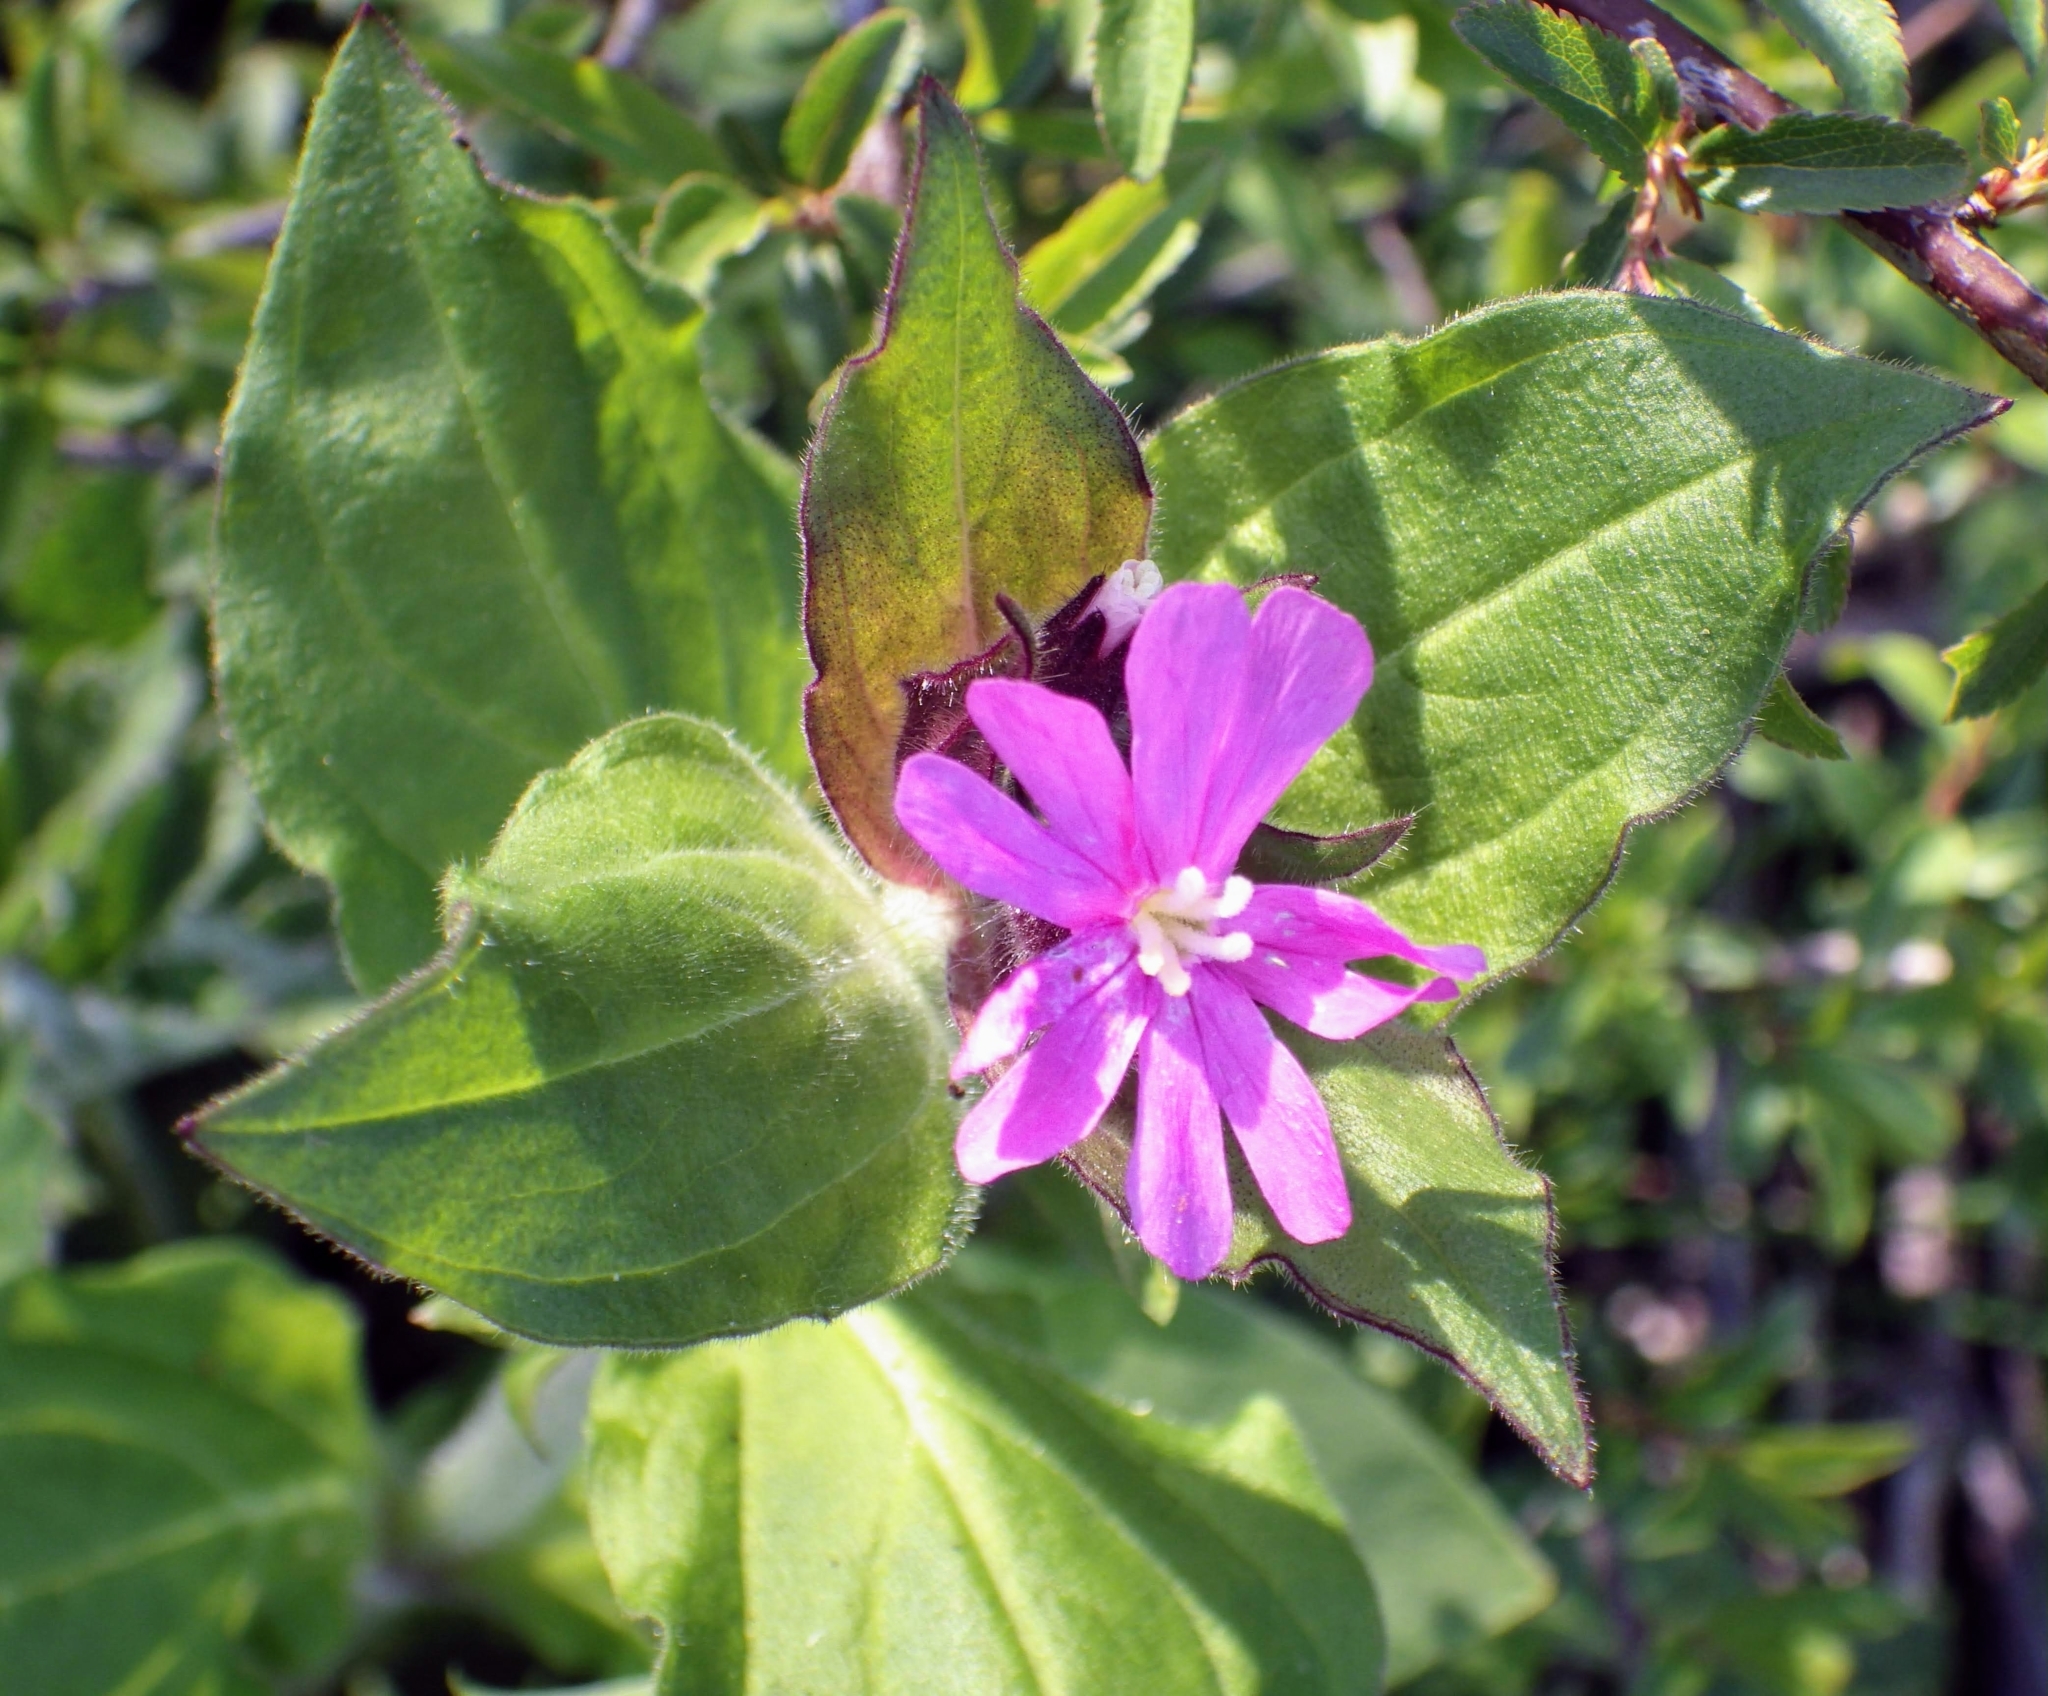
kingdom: Plantae
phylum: Tracheophyta
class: Magnoliopsida
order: Caryophyllales
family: Caryophyllaceae
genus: Silene
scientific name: Silene dioica
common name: Red campion
